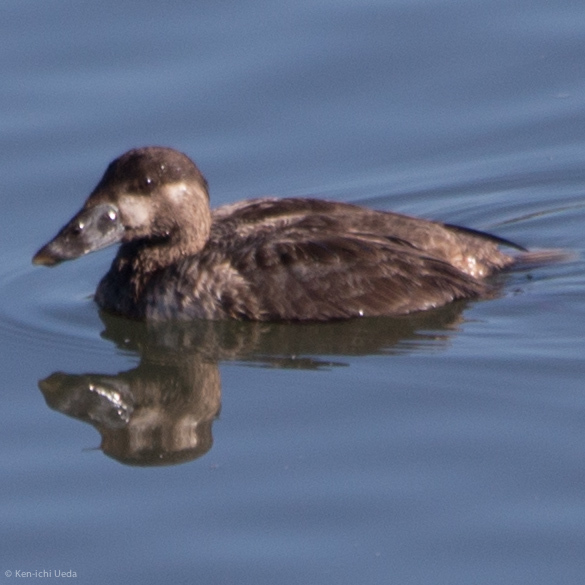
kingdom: Animalia
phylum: Chordata
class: Aves
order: Anseriformes
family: Anatidae
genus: Melanitta
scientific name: Melanitta perspicillata
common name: Surf scoter
